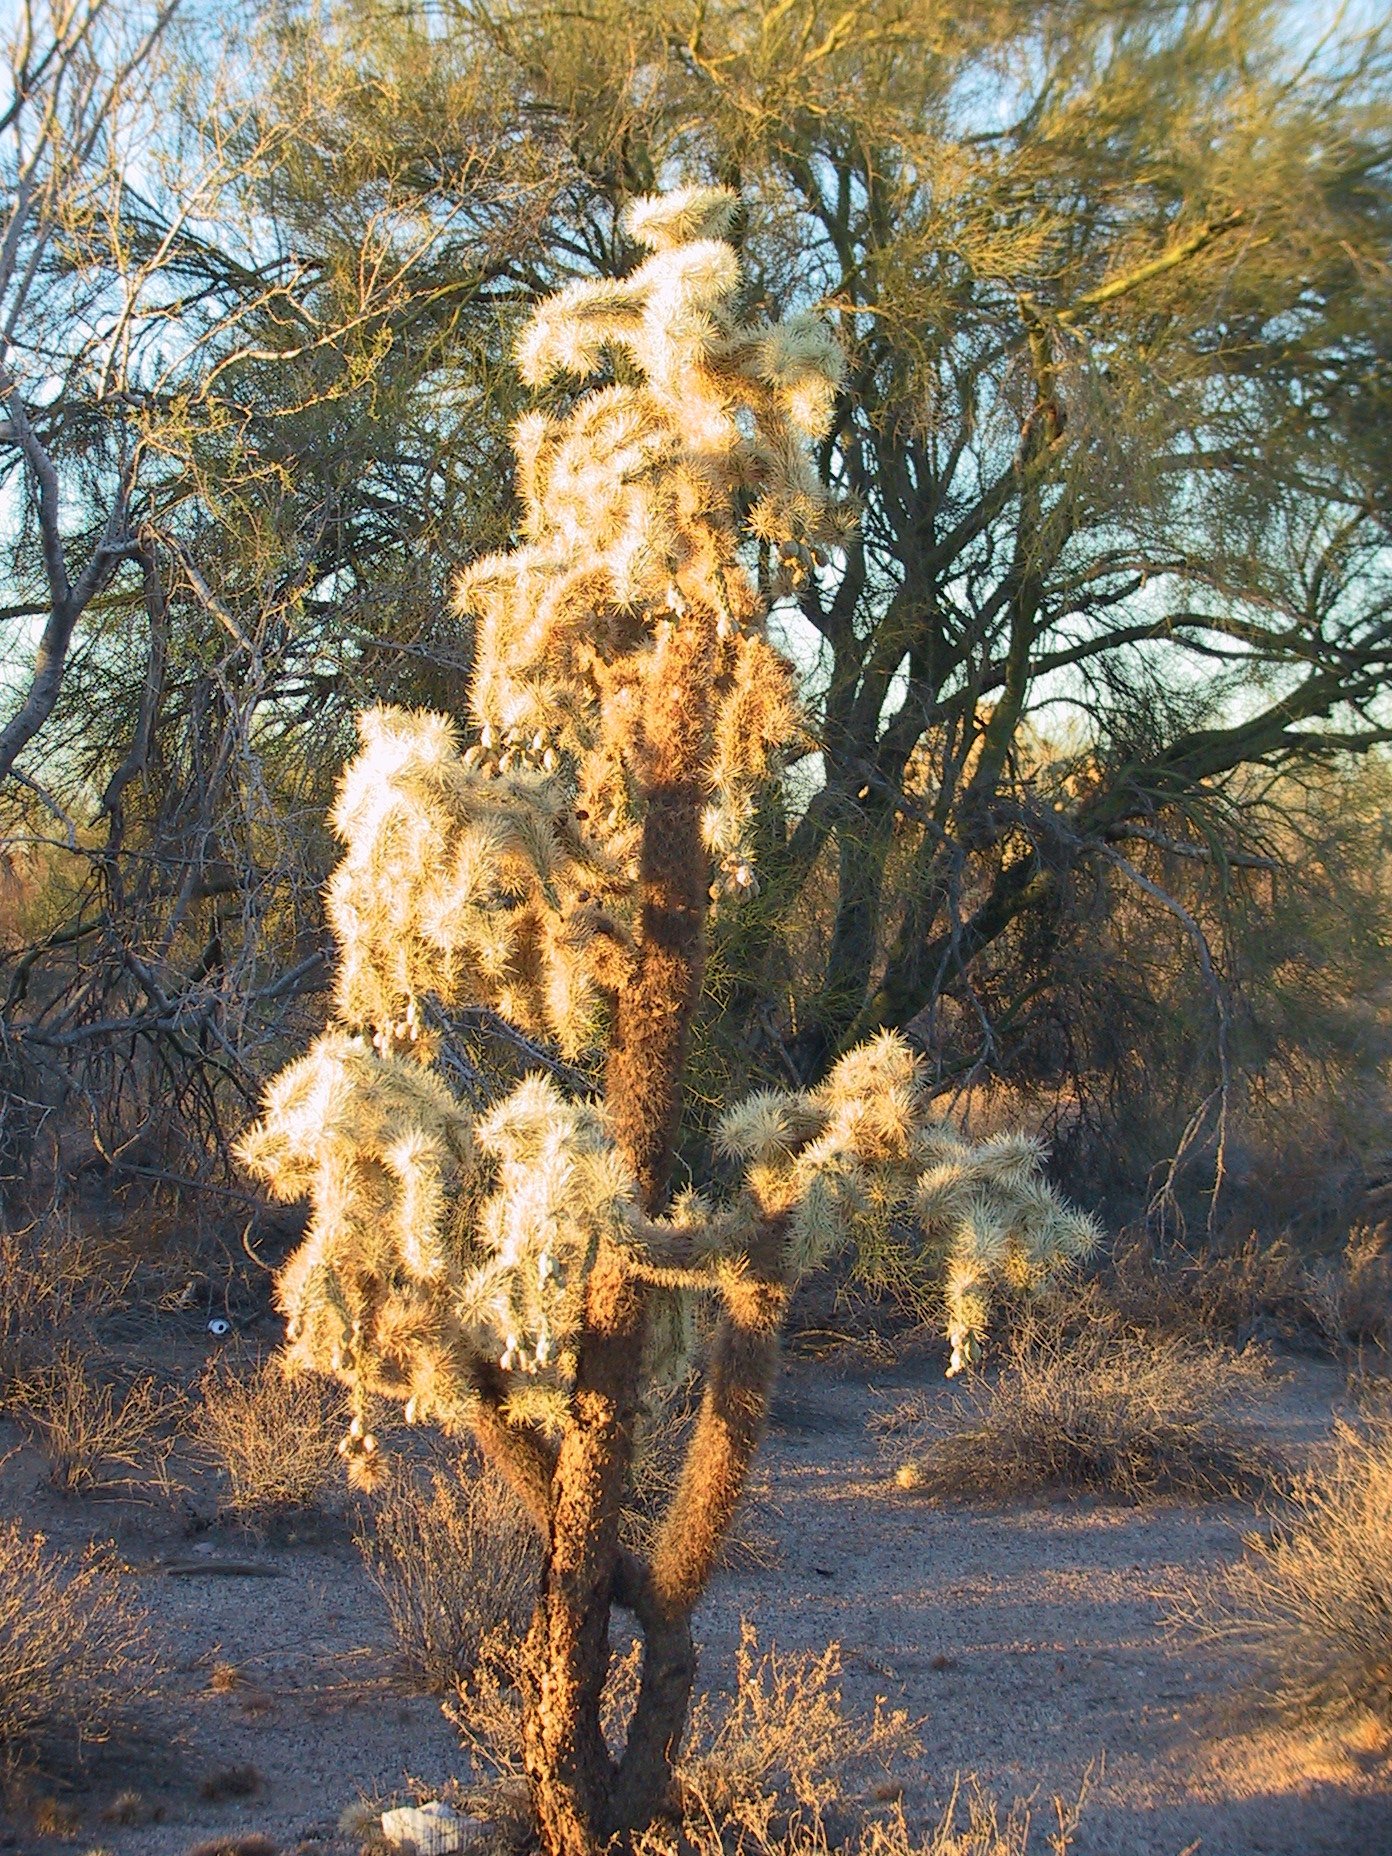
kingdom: Plantae
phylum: Tracheophyta
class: Magnoliopsida
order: Caryophyllales
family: Cactaceae
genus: Cylindropuntia
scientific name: Cylindropuntia fulgida
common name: Jumping cholla
